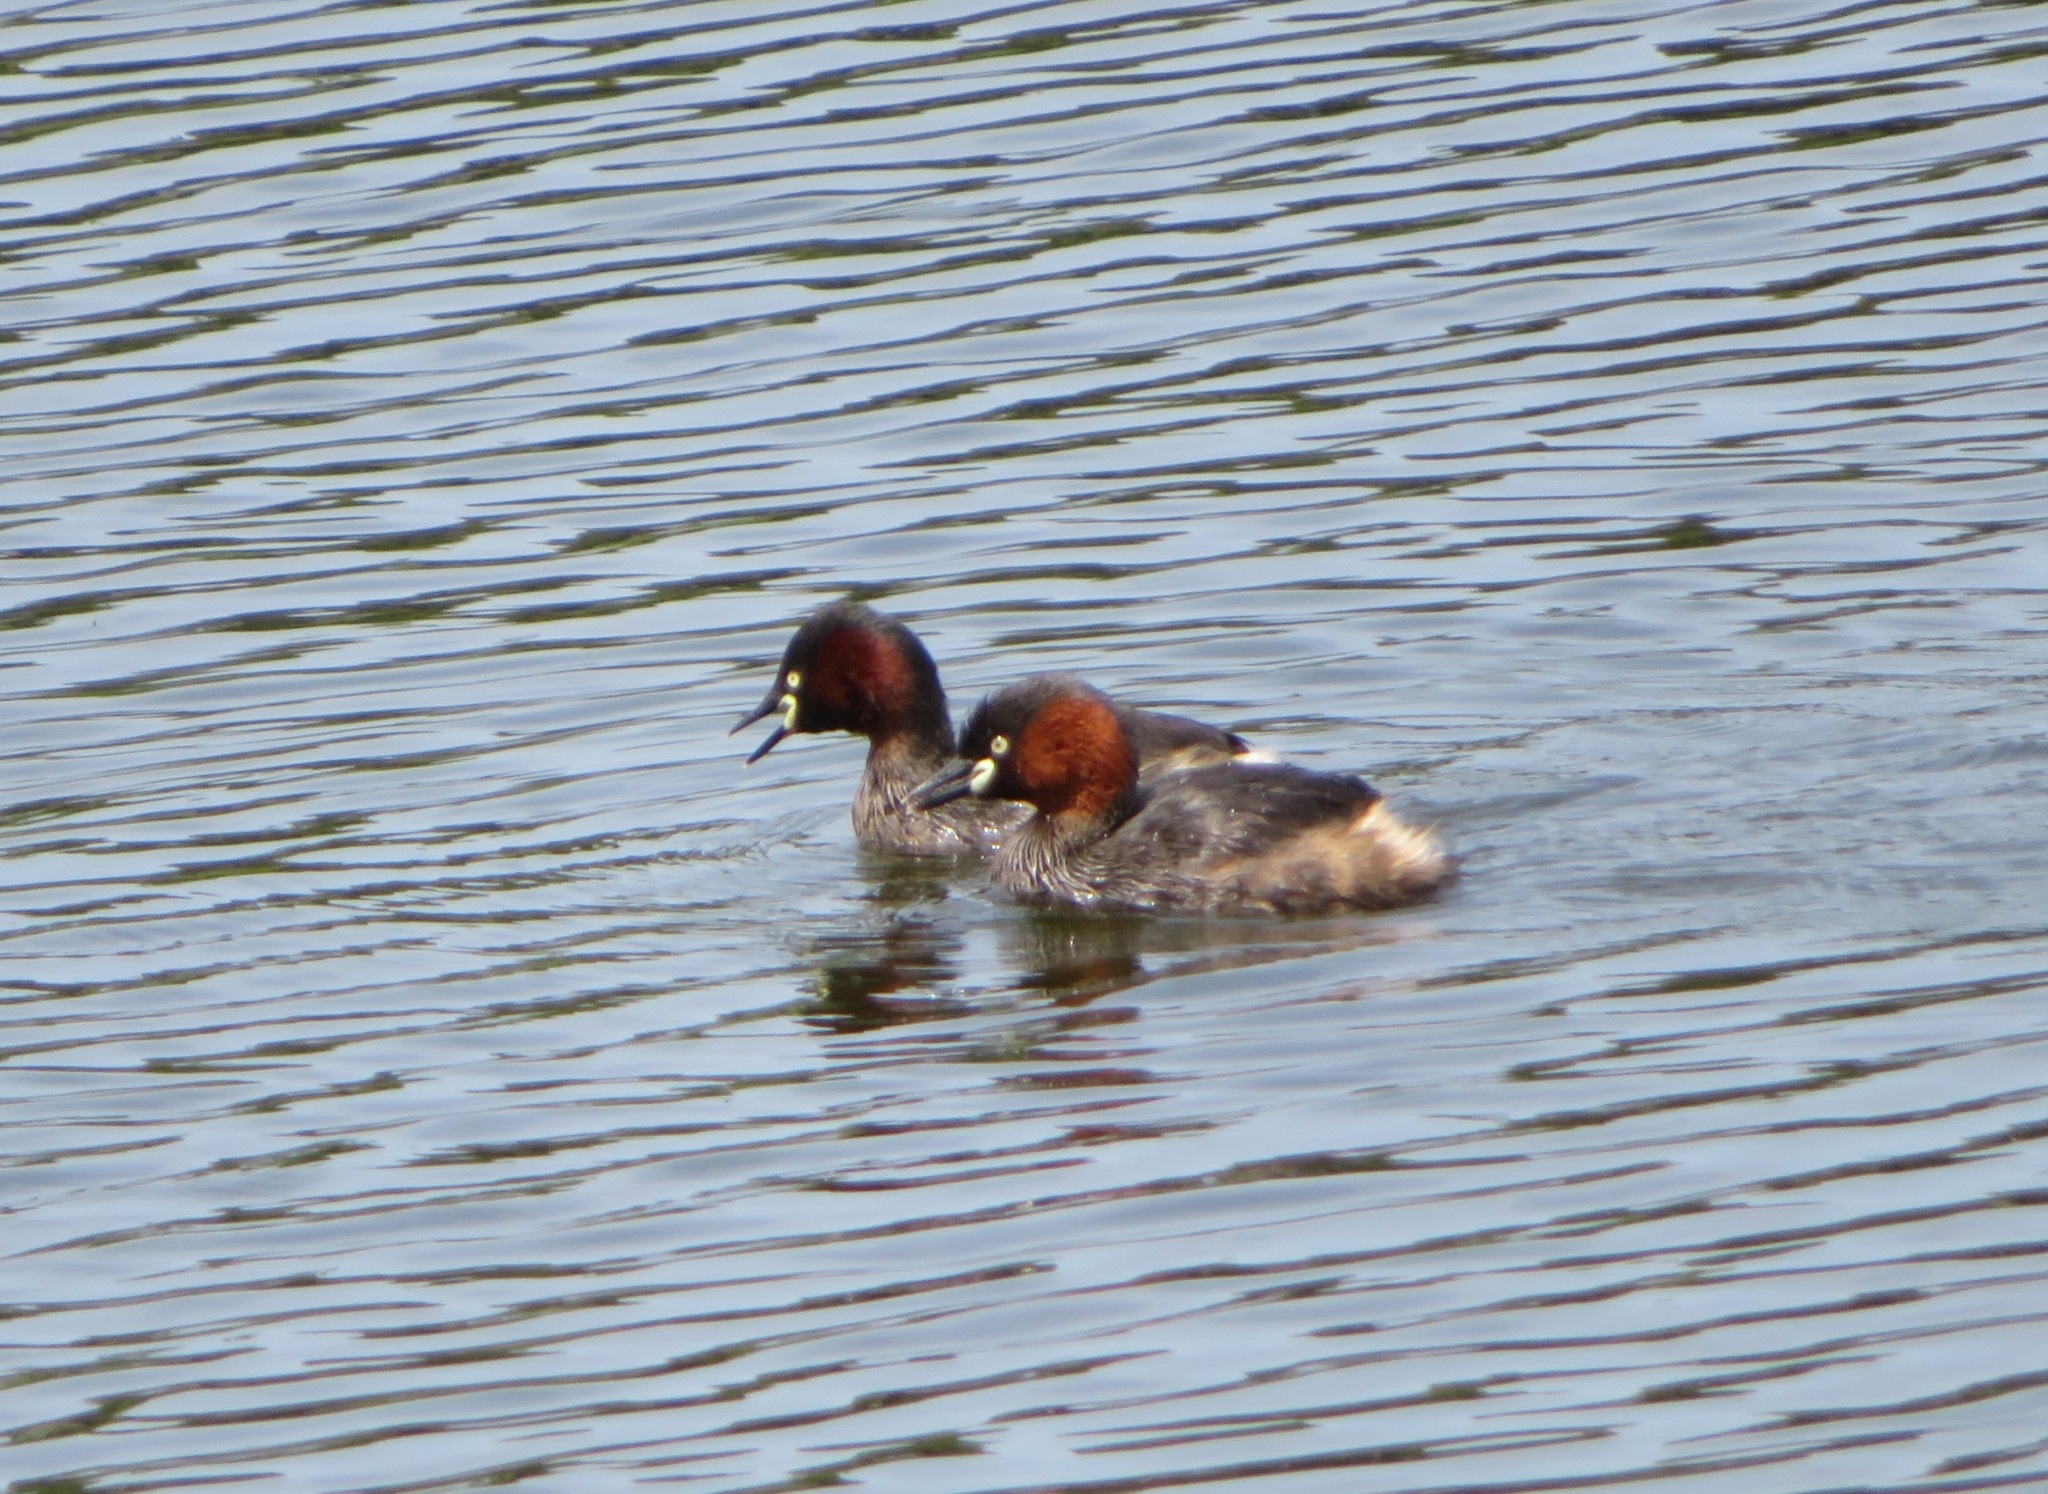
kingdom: Animalia
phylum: Chordata
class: Aves
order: Podicipediformes
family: Podicipedidae
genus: Tachybaptus
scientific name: Tachybaptus ruficollis
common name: Little grebe
